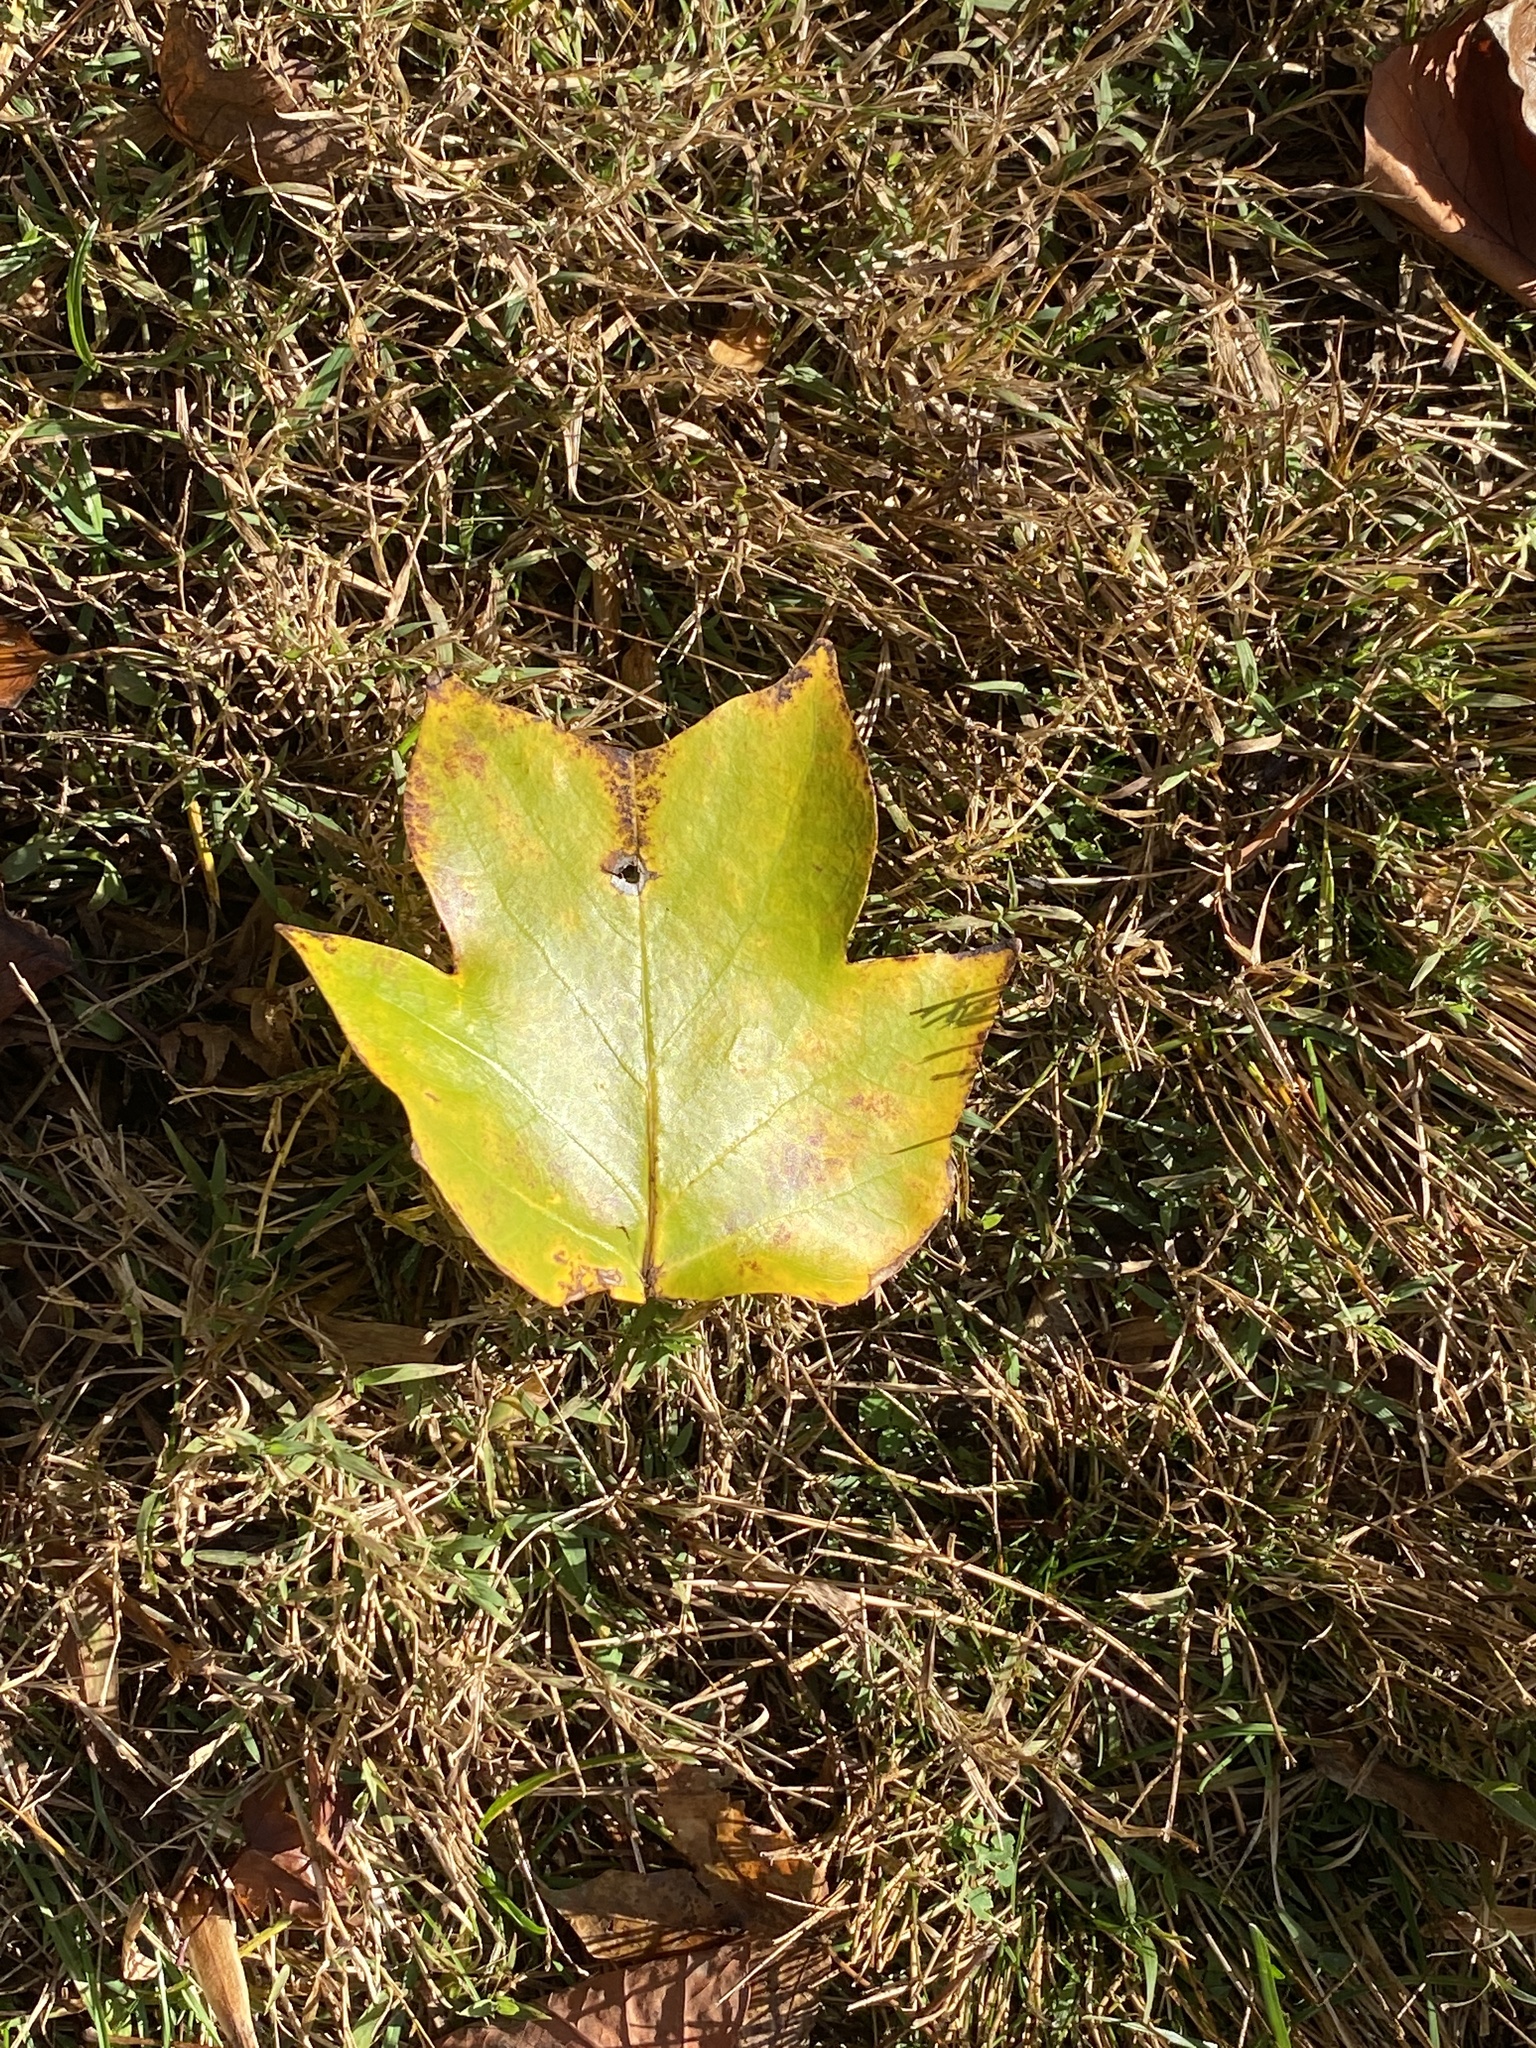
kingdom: Plantae
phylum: Tracheophyta
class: Magnoliopsida
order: Magnoliales
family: Magnoliaceae
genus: Liriodendron
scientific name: Liriodendron tulipifera
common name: Tulip tree
